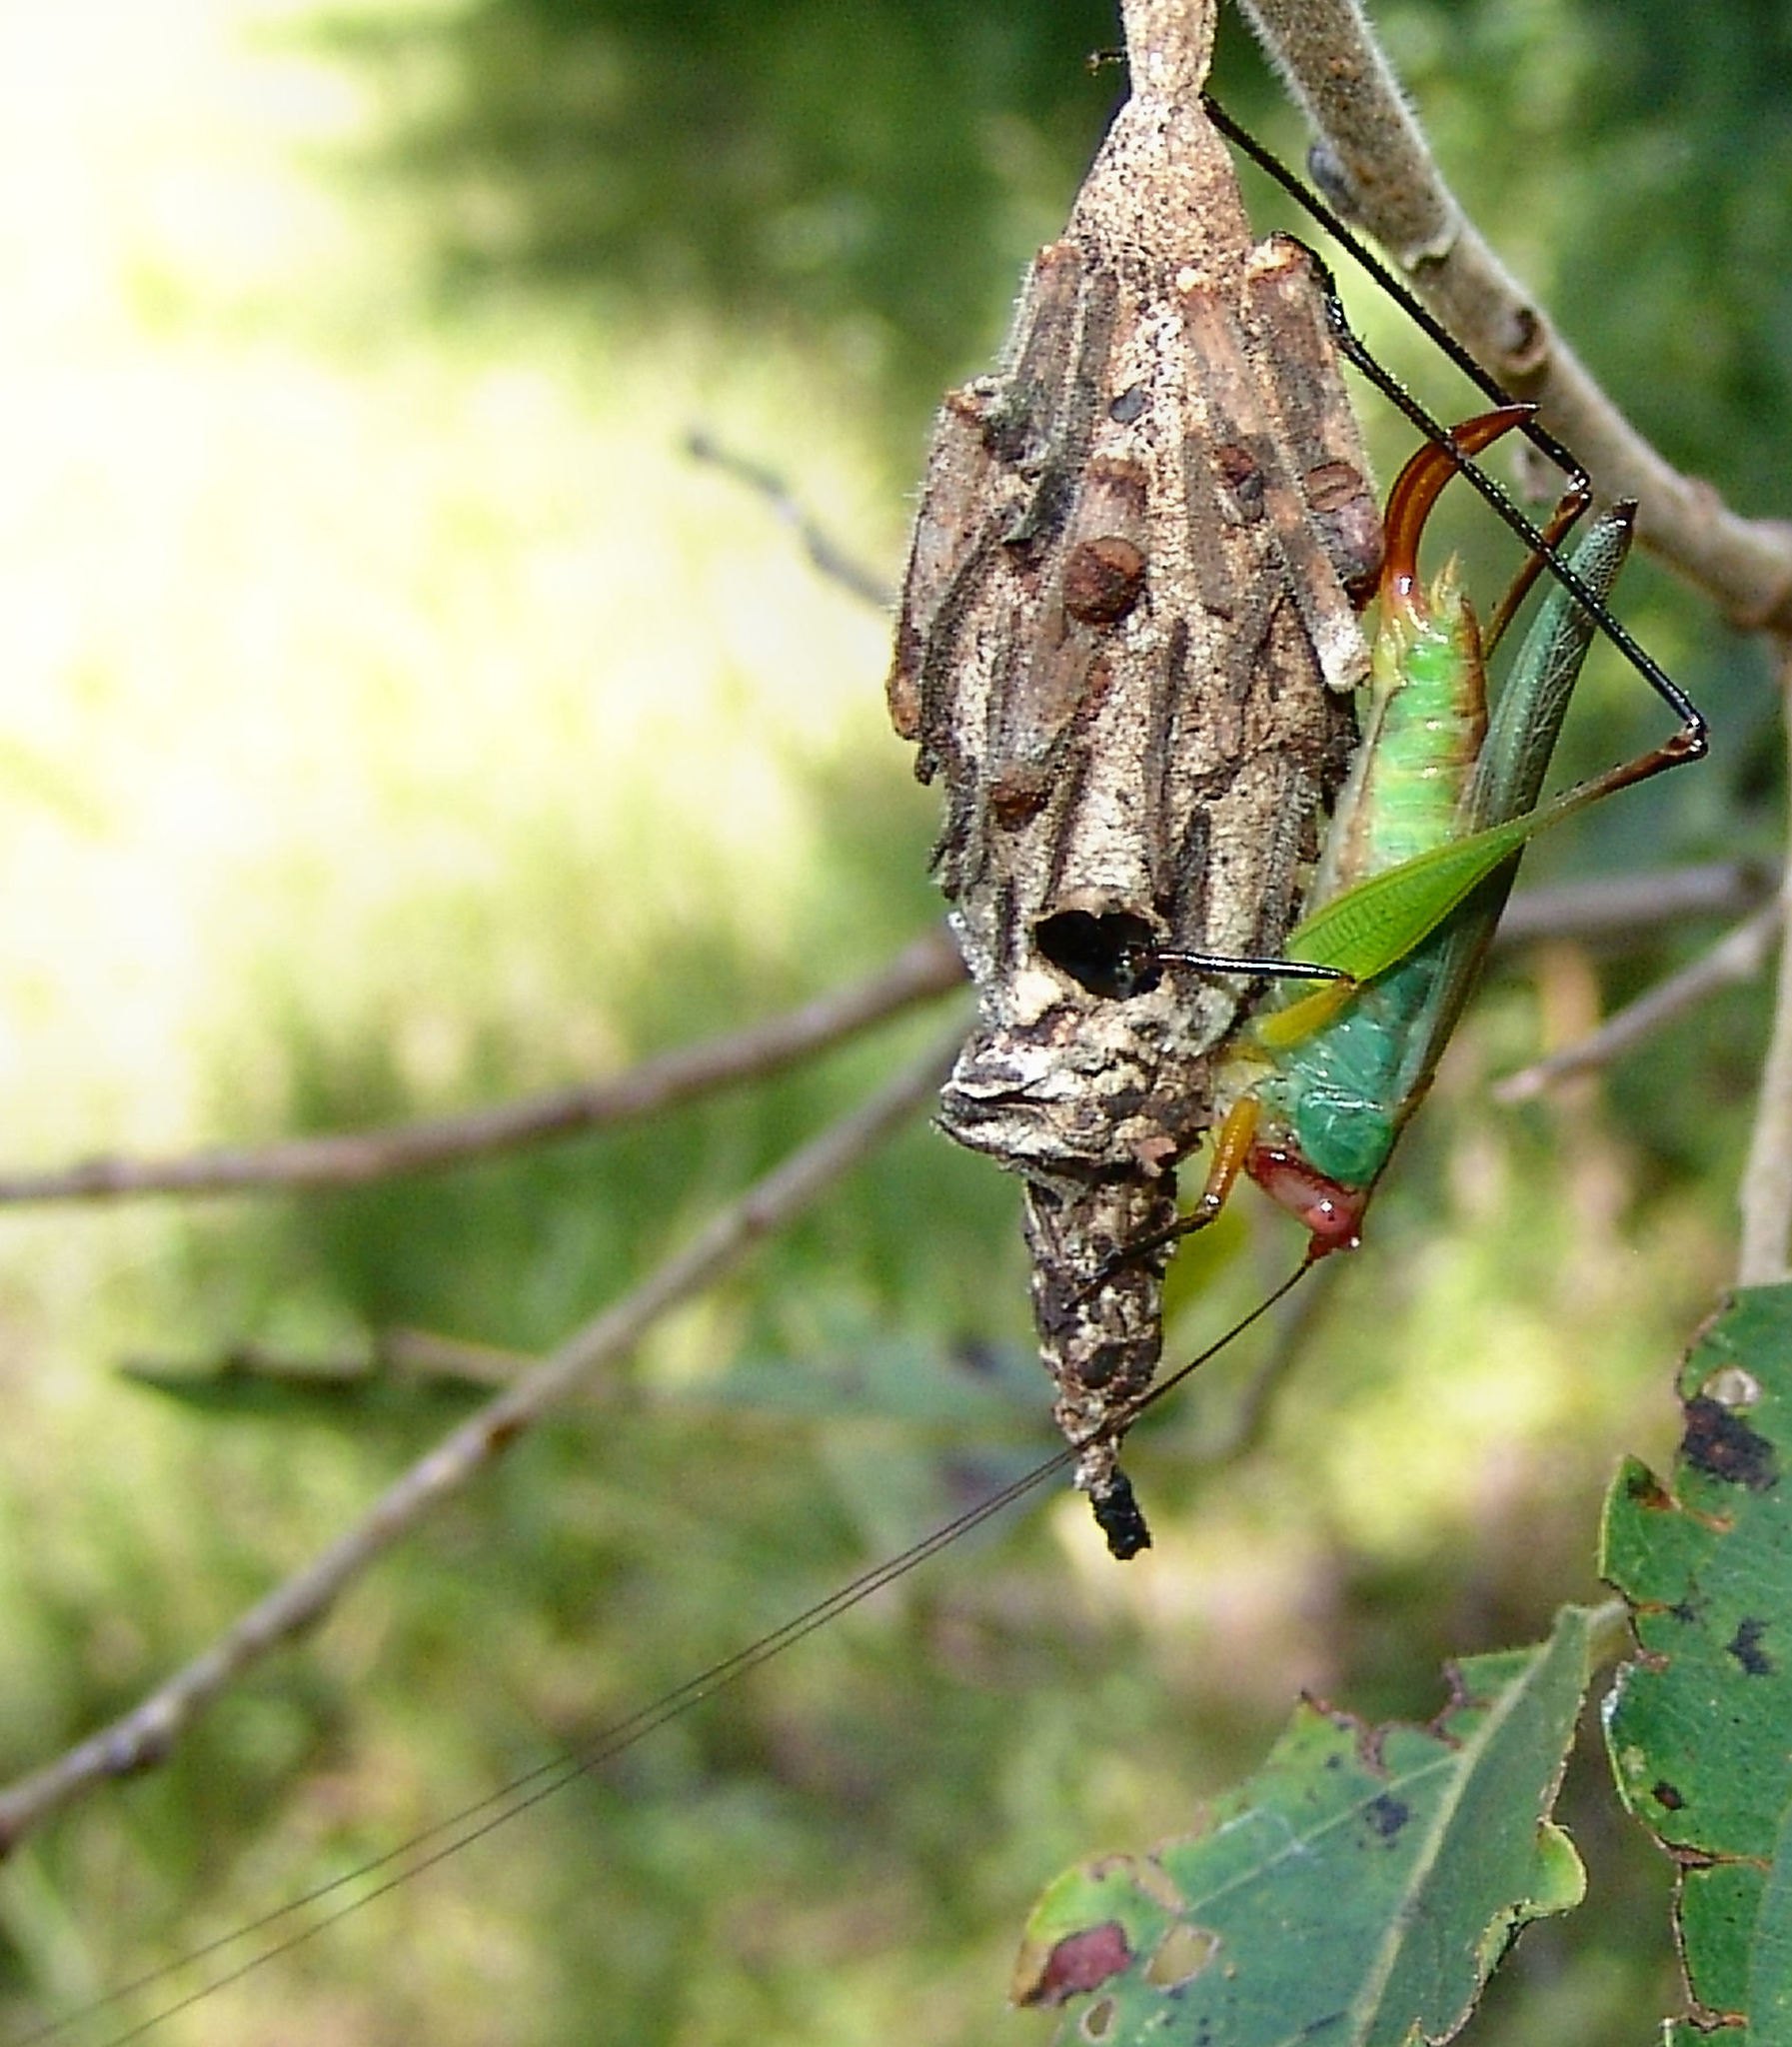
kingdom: Animalia
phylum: Arthropoda
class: Insecta
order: Orthoptera
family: Tettigoniidae
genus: Orchelimum
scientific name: Orchelimum nigripes
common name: Black-legged meadow katydid
